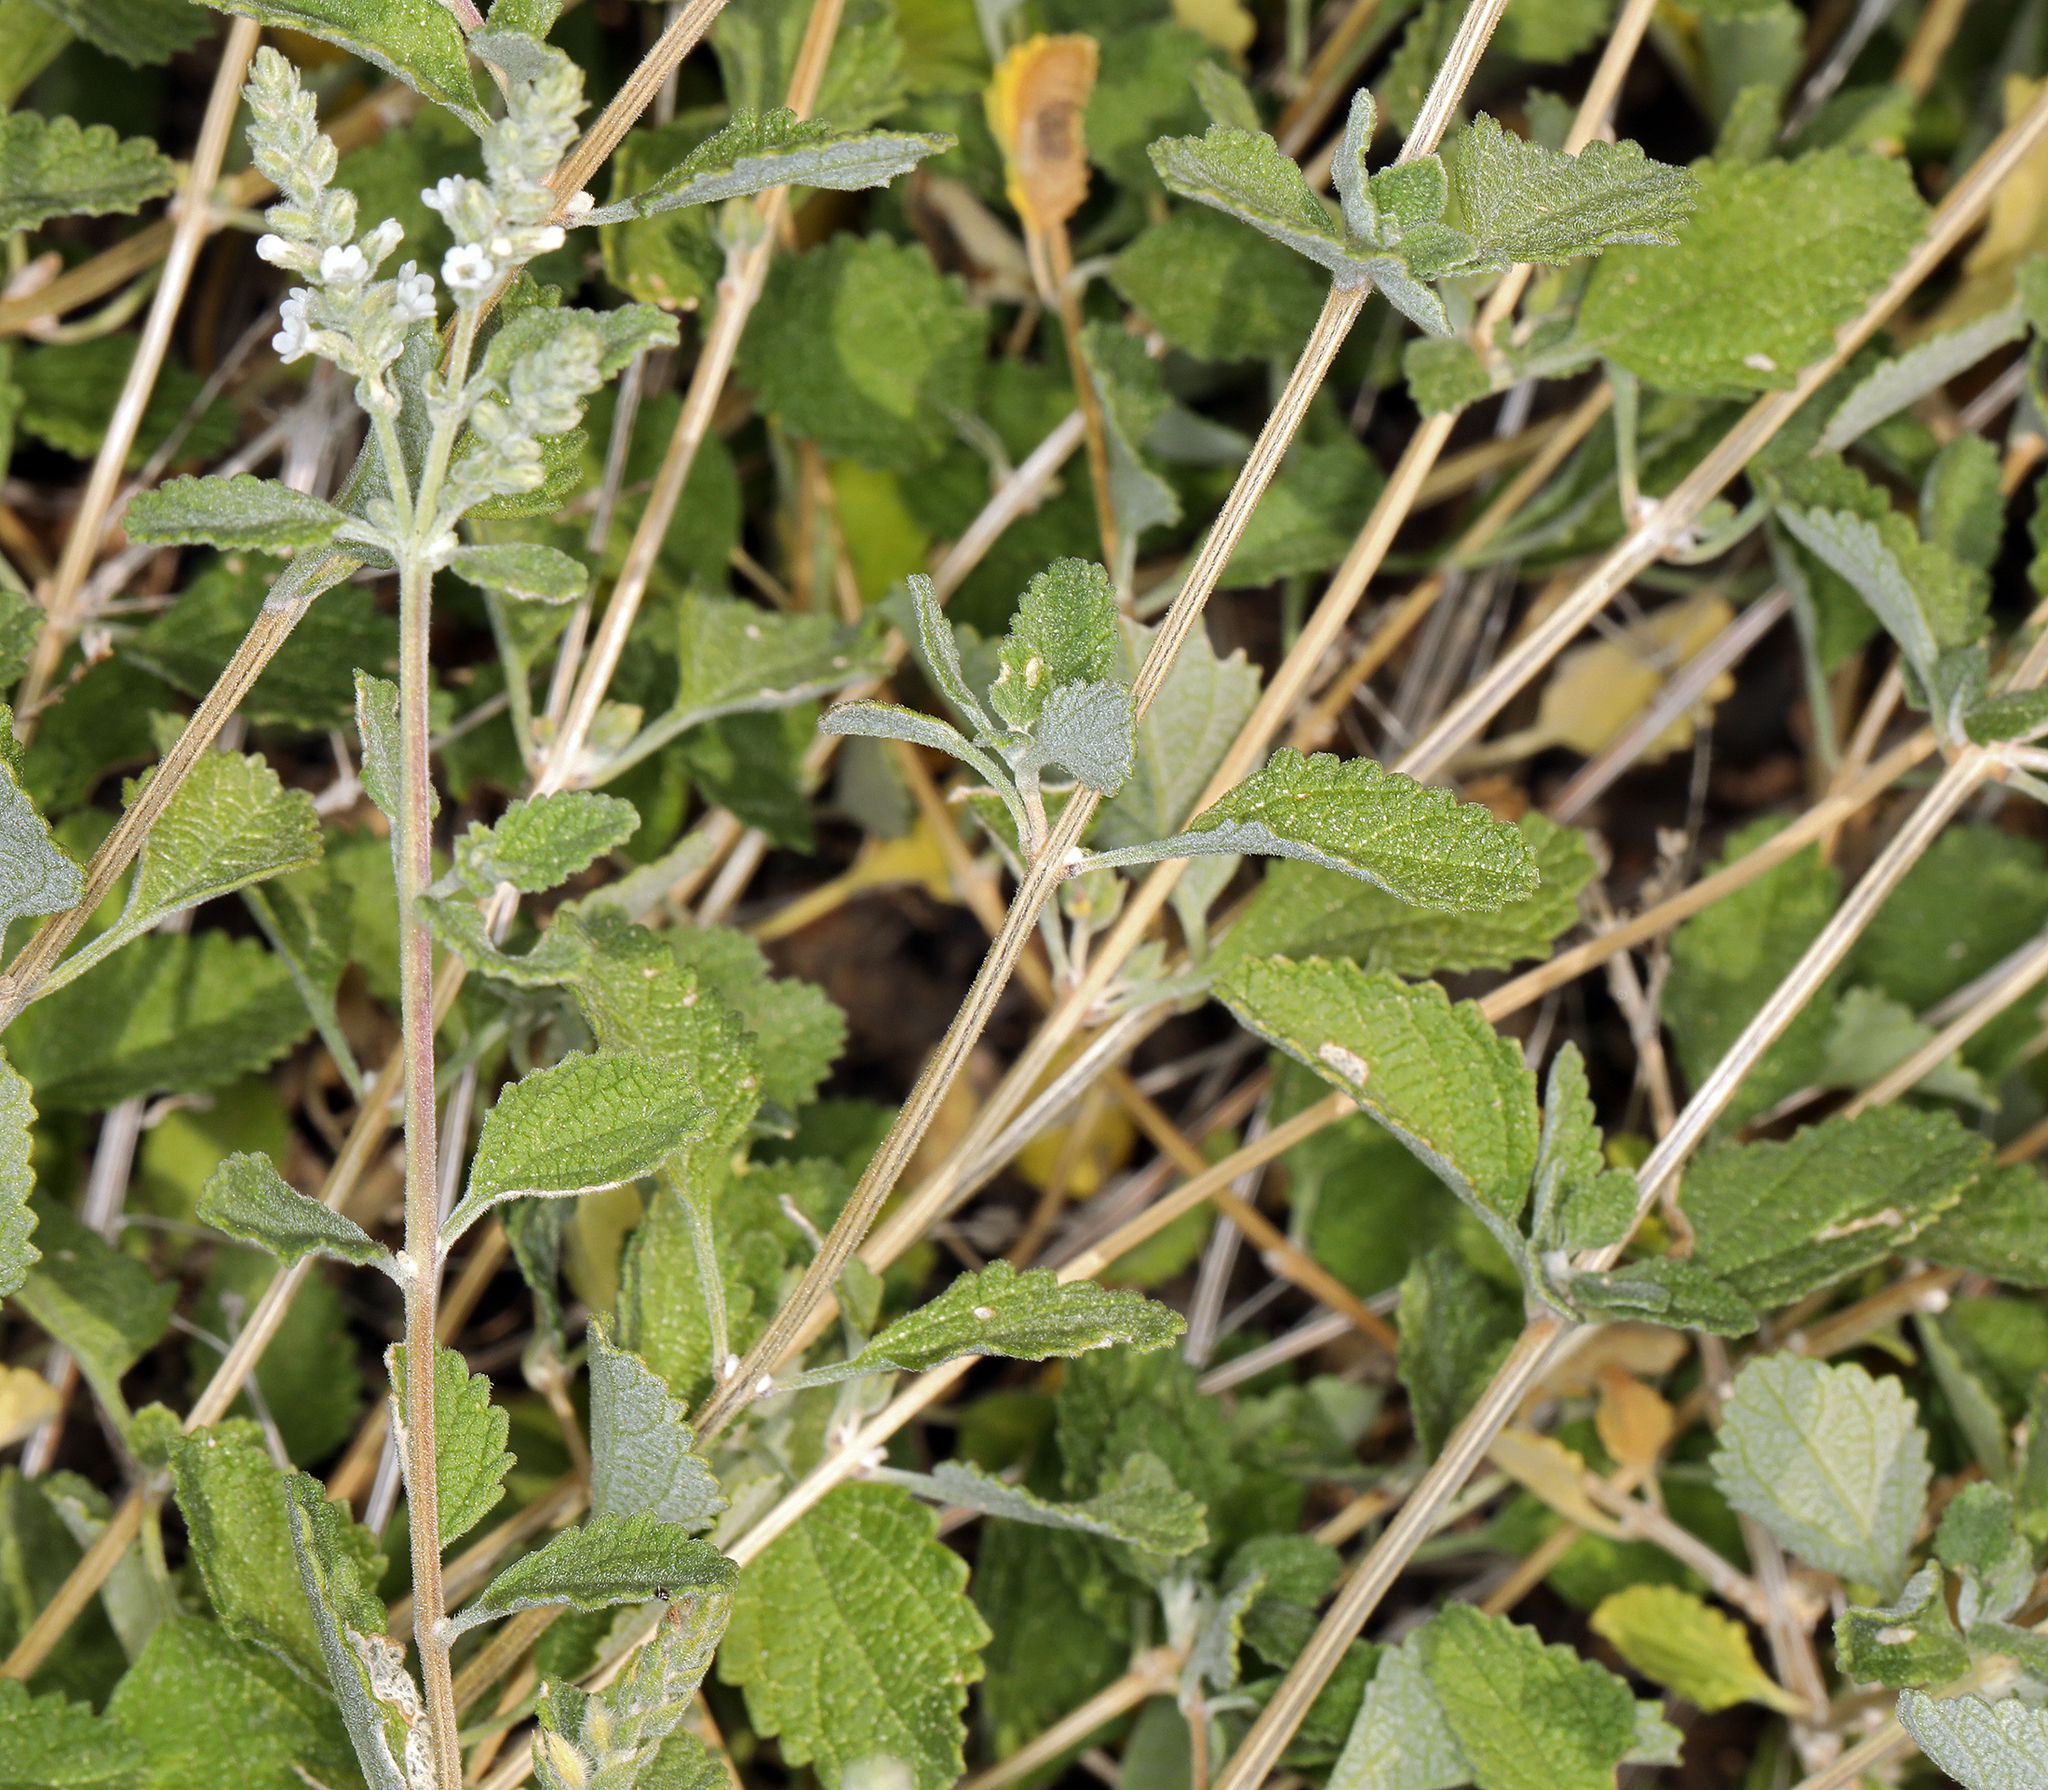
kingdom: Plantae
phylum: Tracheophyta
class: Magnoliopsida
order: Lamiales
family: Verbenaceae
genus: Aloysia
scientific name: Aloysia wrightii
